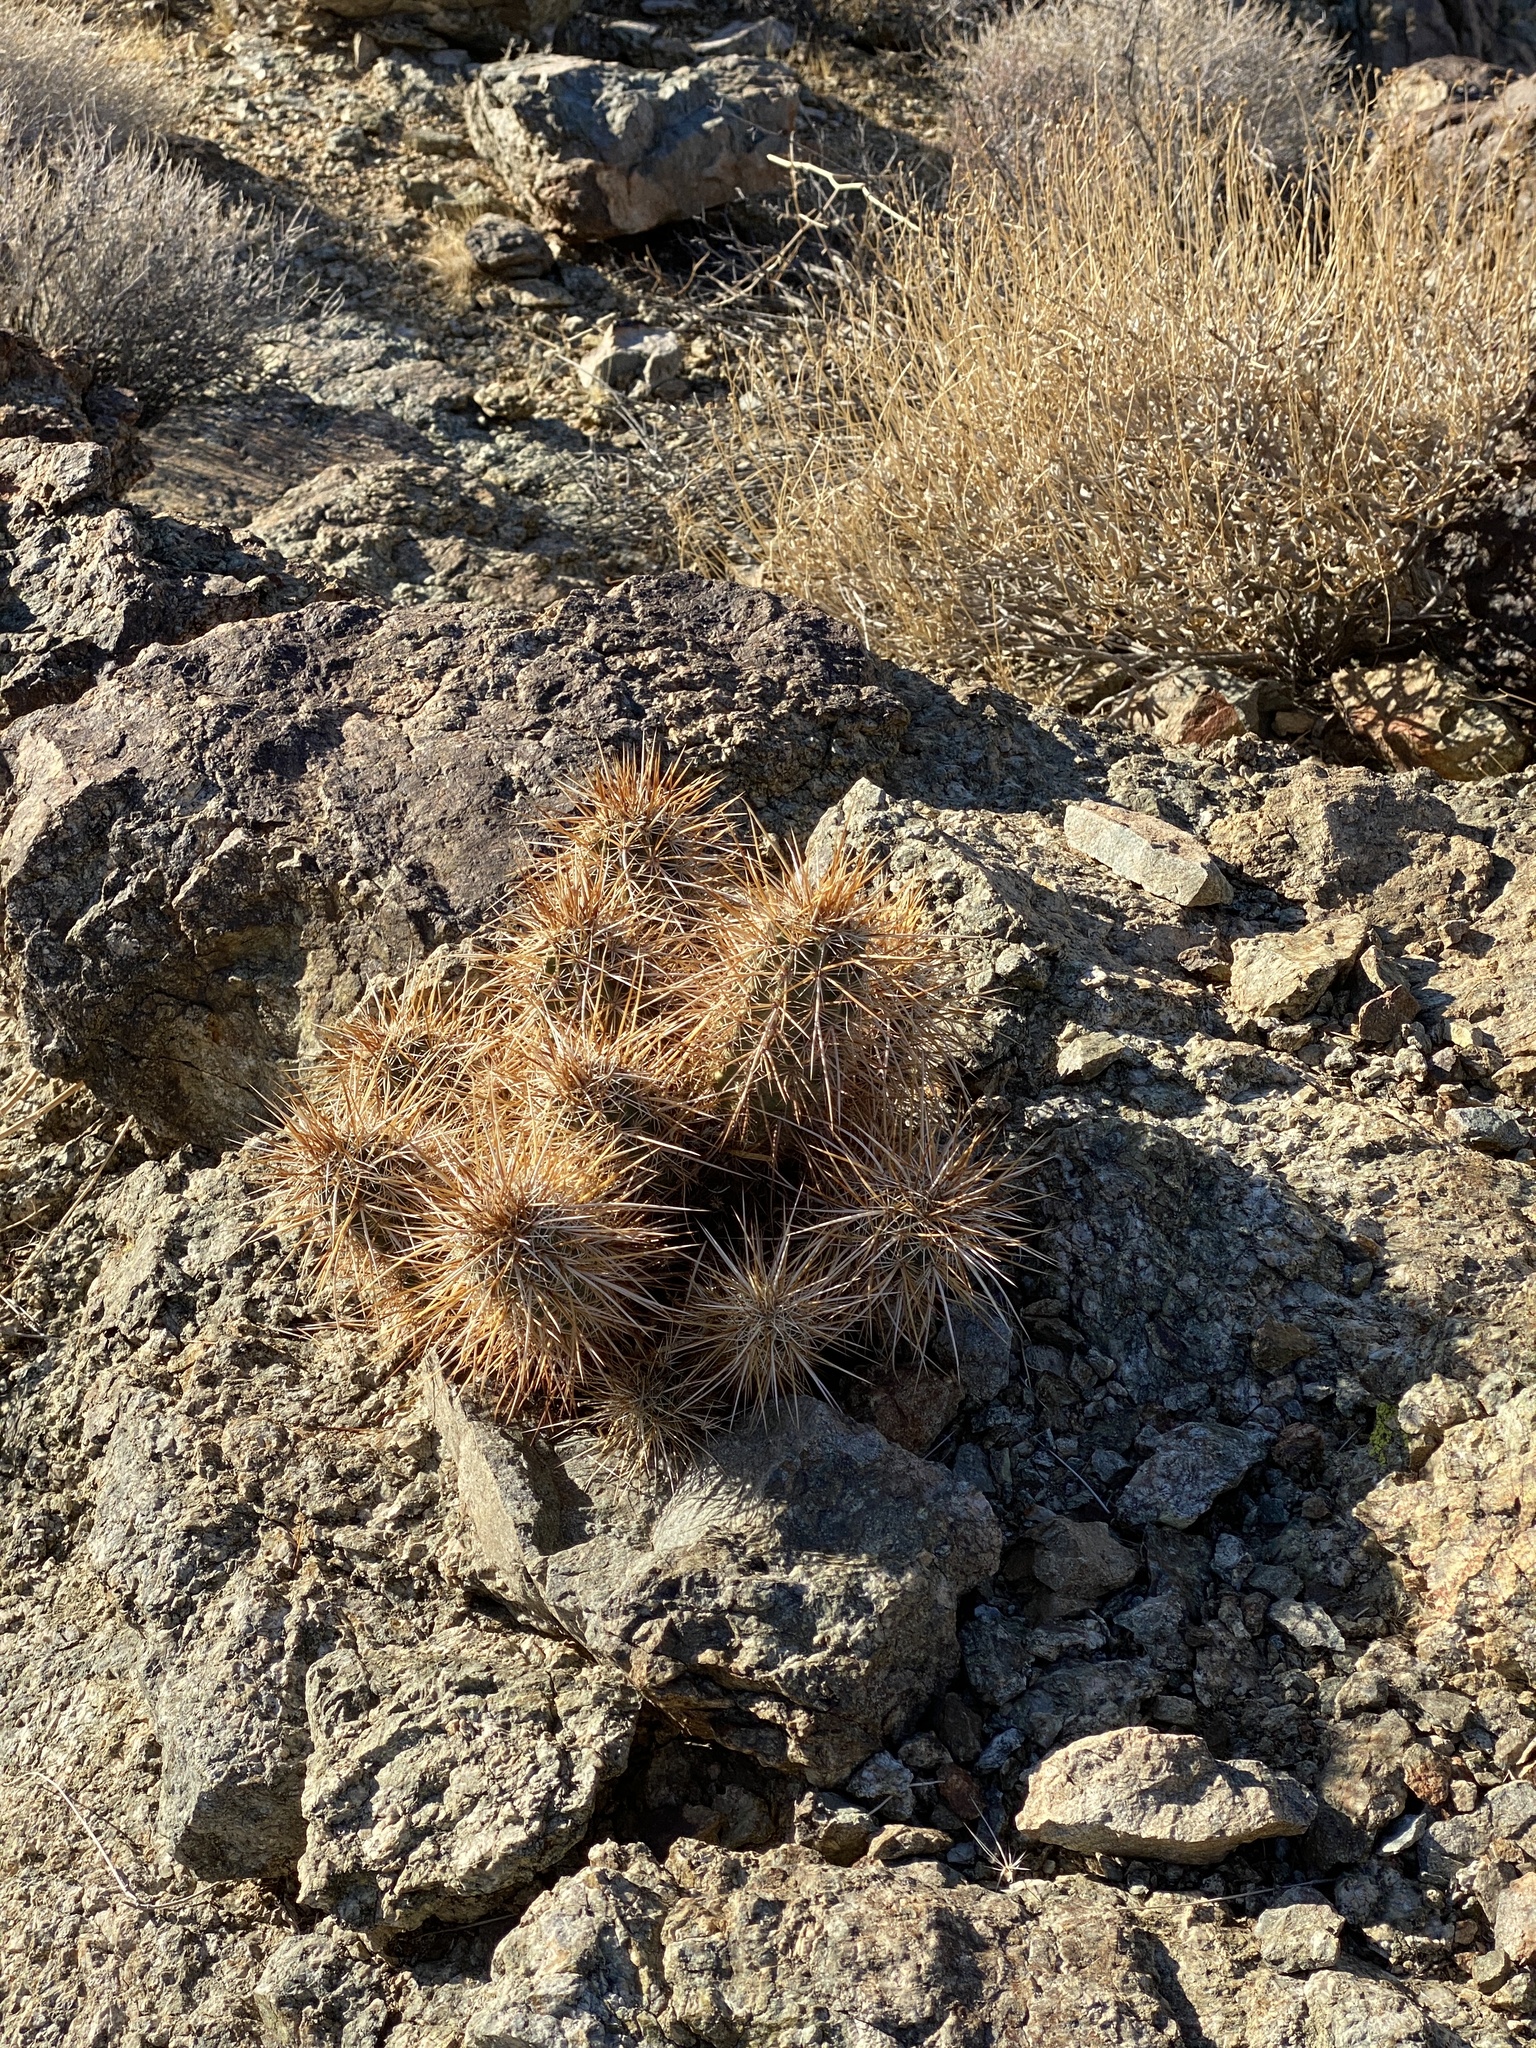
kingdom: Plantae
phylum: Tracheophyta
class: Magnoliopsida
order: Caryophyllales
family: Cactaceae
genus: Echinocereus
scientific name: Echinocereus engelmannii
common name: Engelmann's hedgehog cactus
